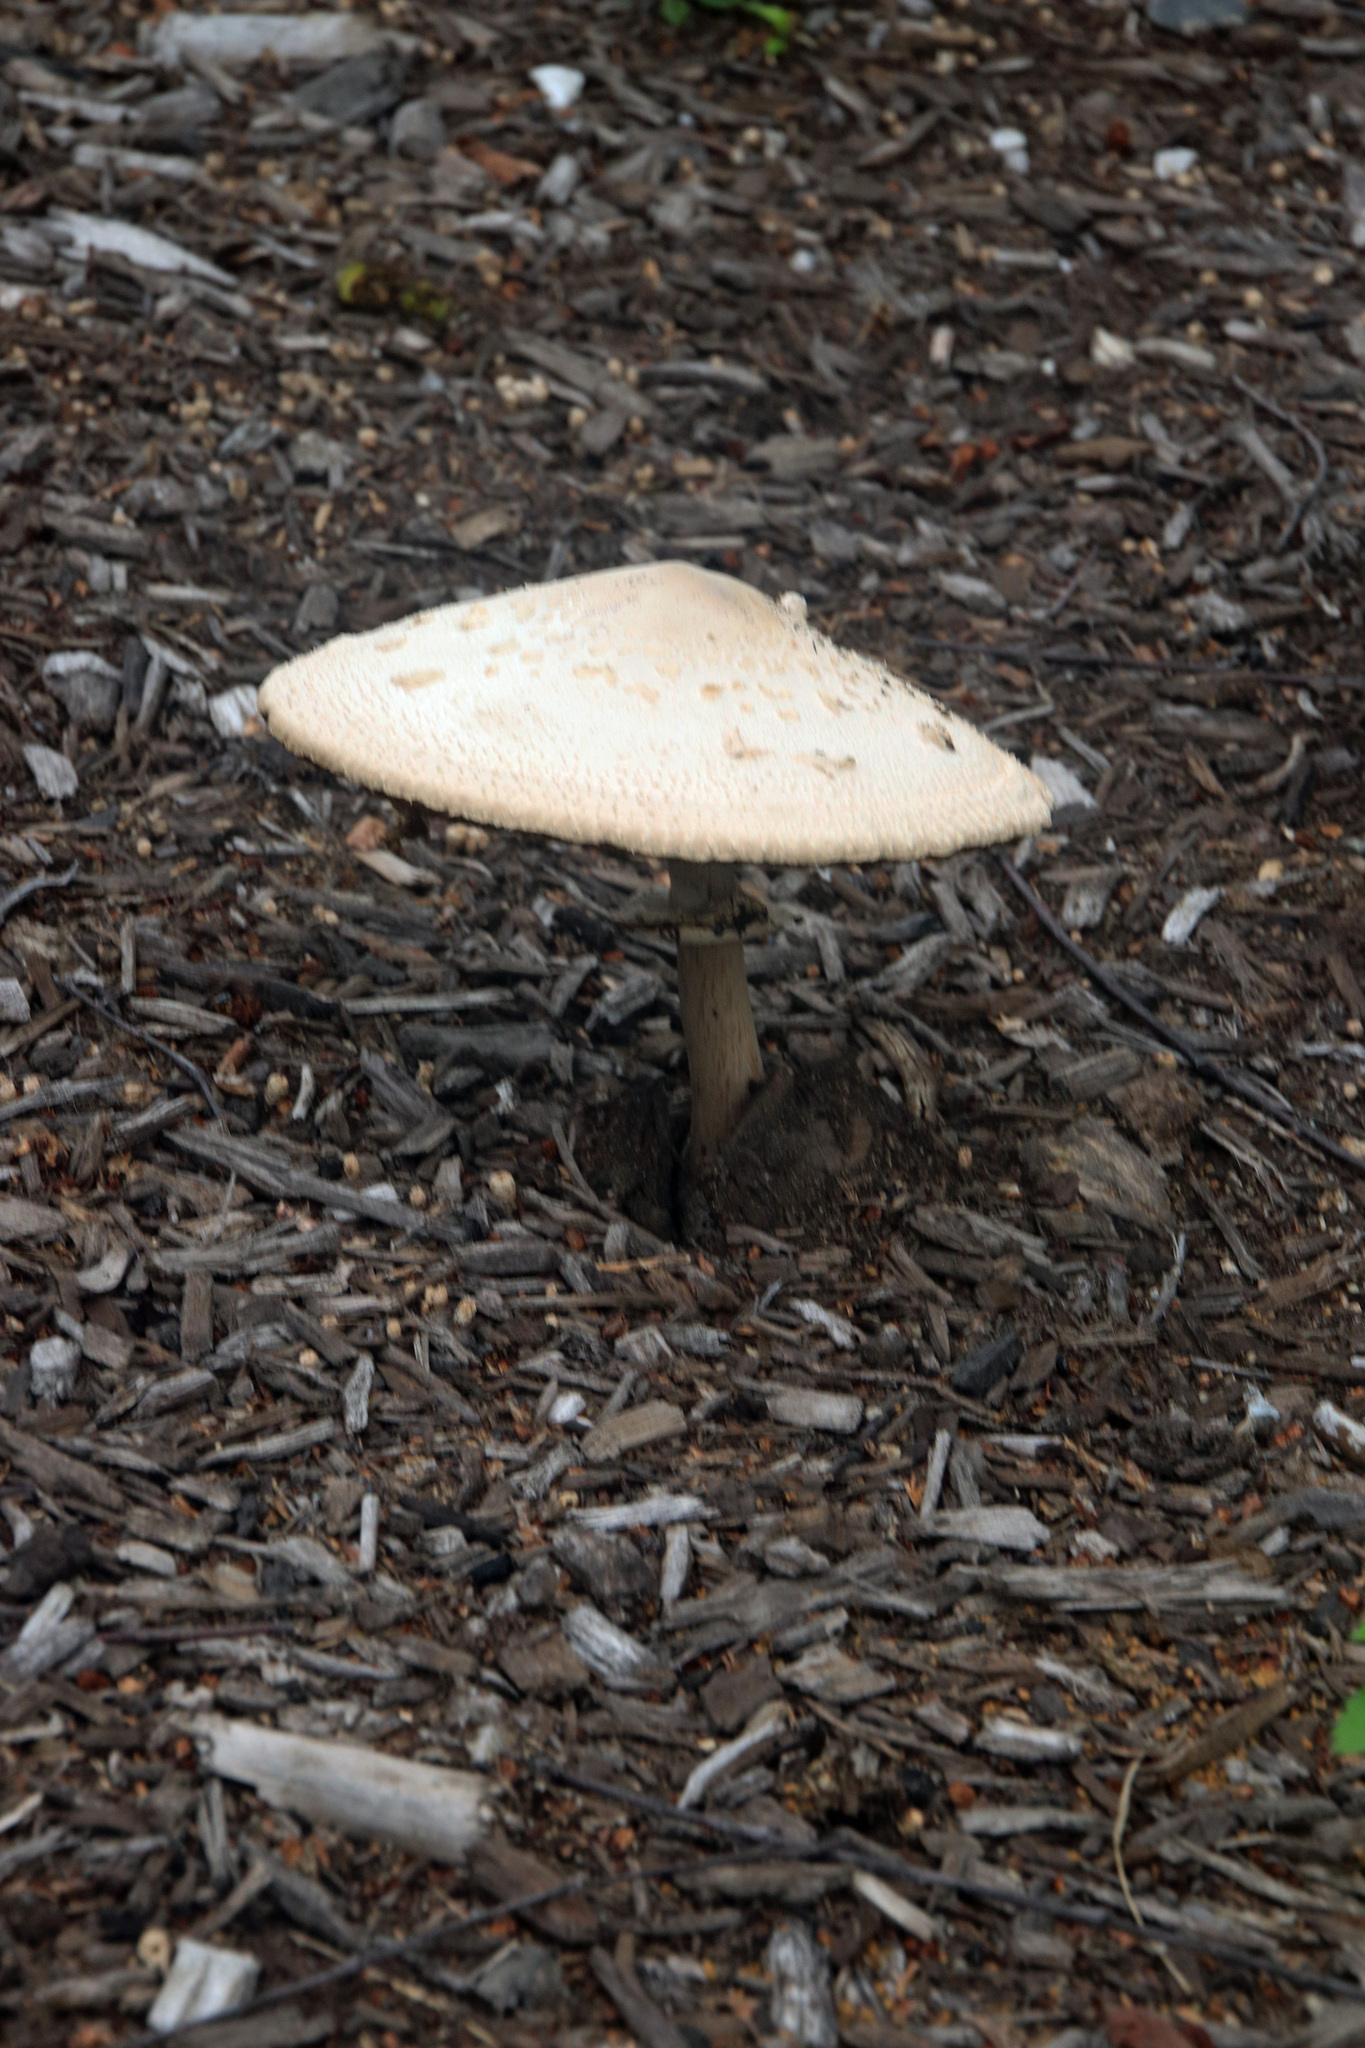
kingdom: Fungi
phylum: Basidiomycota
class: Agaricomycetes
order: Agaricales
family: Agaricaceae
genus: Chlorophyllum
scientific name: Chlorophyllum molybdites
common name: False parasol
